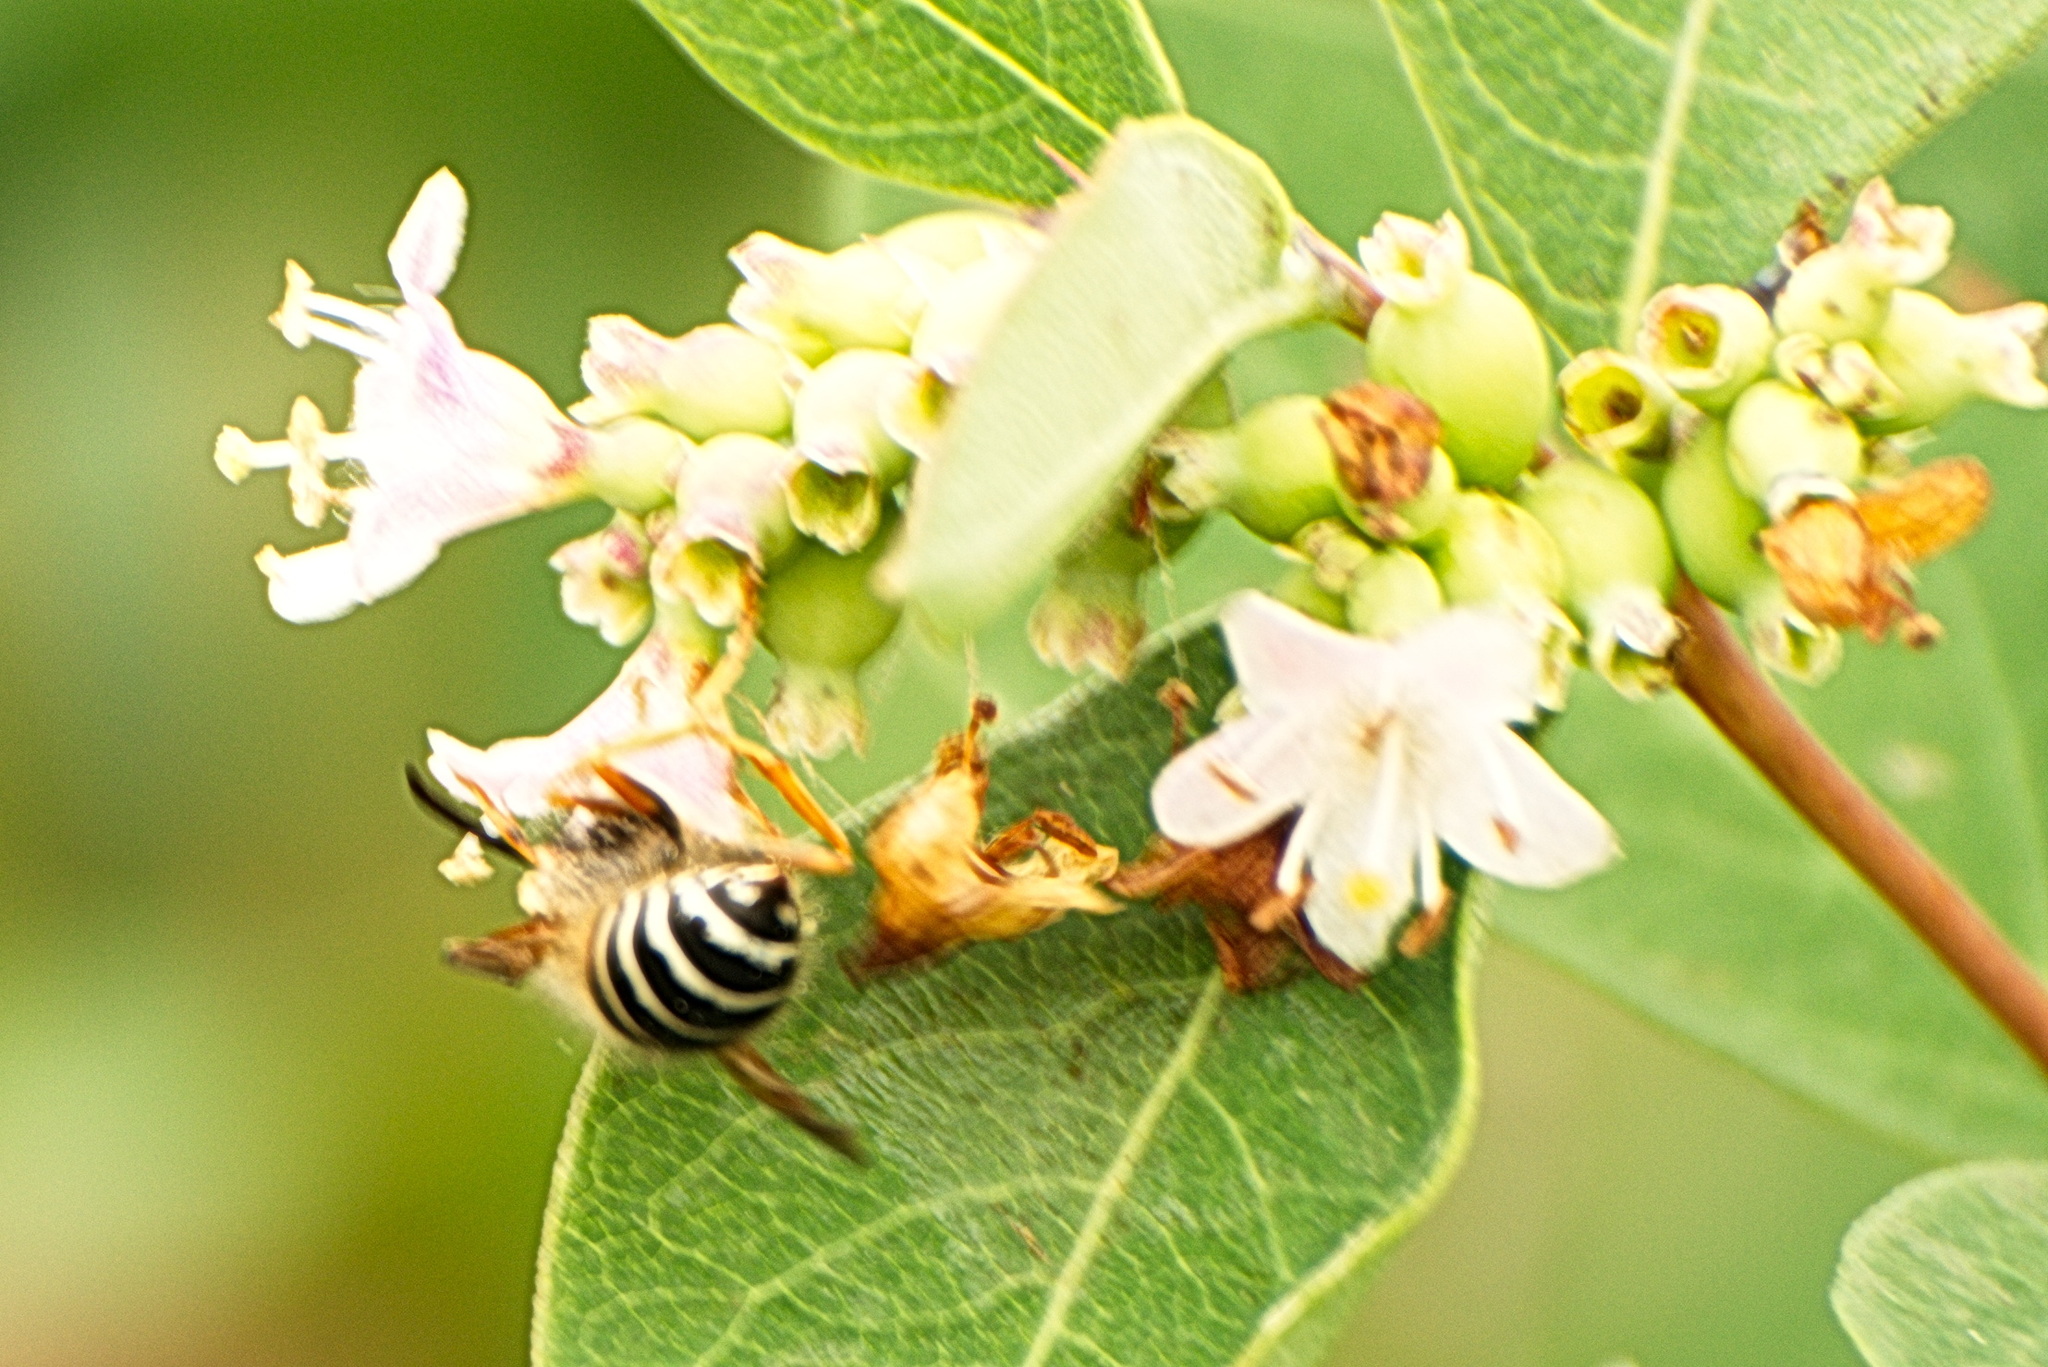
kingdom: Animalia
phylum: Arthropoda
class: Insecta
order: Hymenoptera
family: Vespidae
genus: Dolichovespula
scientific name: Dolichovespula norwegica
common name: Norwegian wasp
